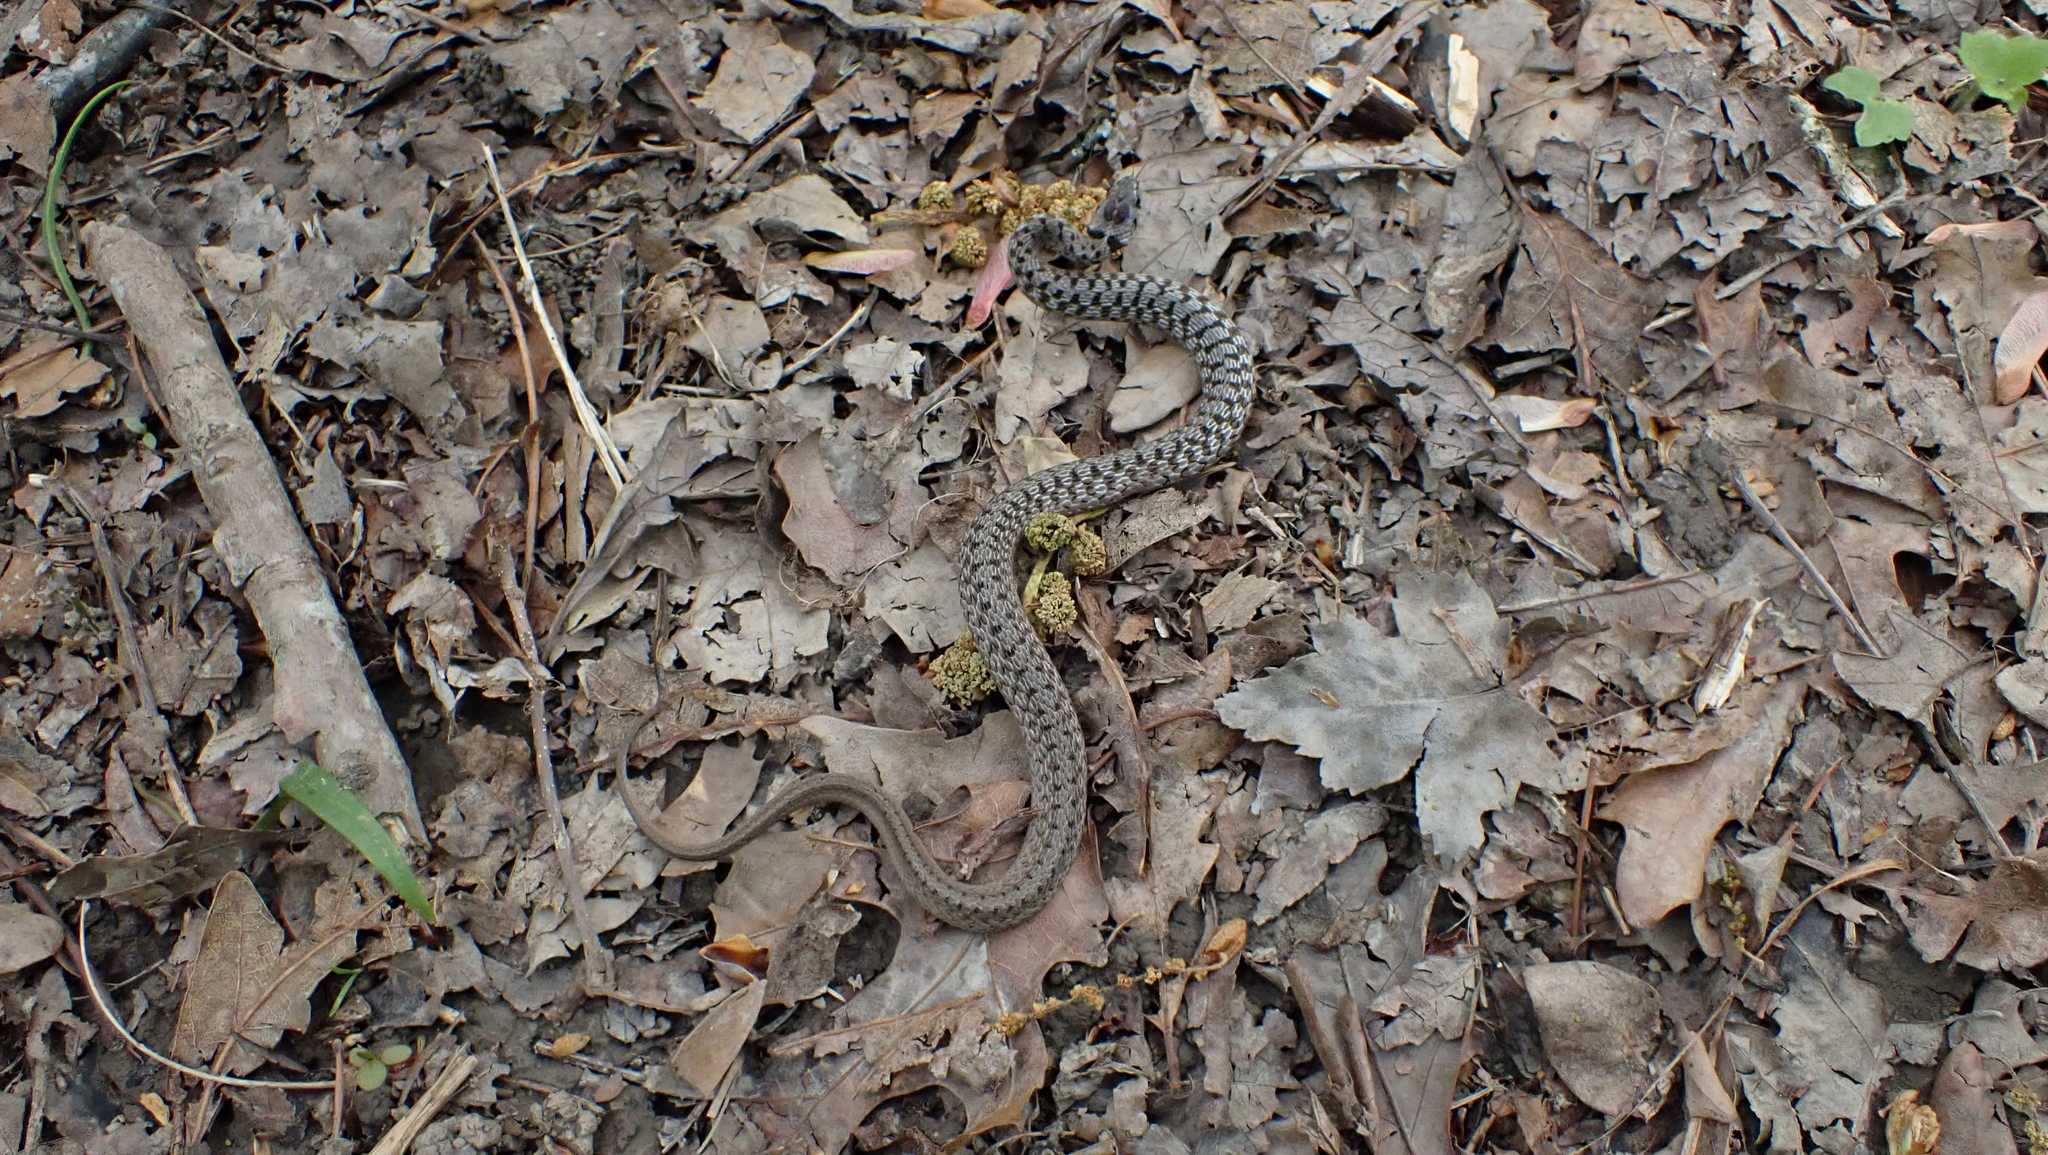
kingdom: Animalia
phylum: Chordata
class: Squamata
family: Colubridae
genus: Storeria
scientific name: Storeria dekayi
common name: (dekay’s) brown snake
